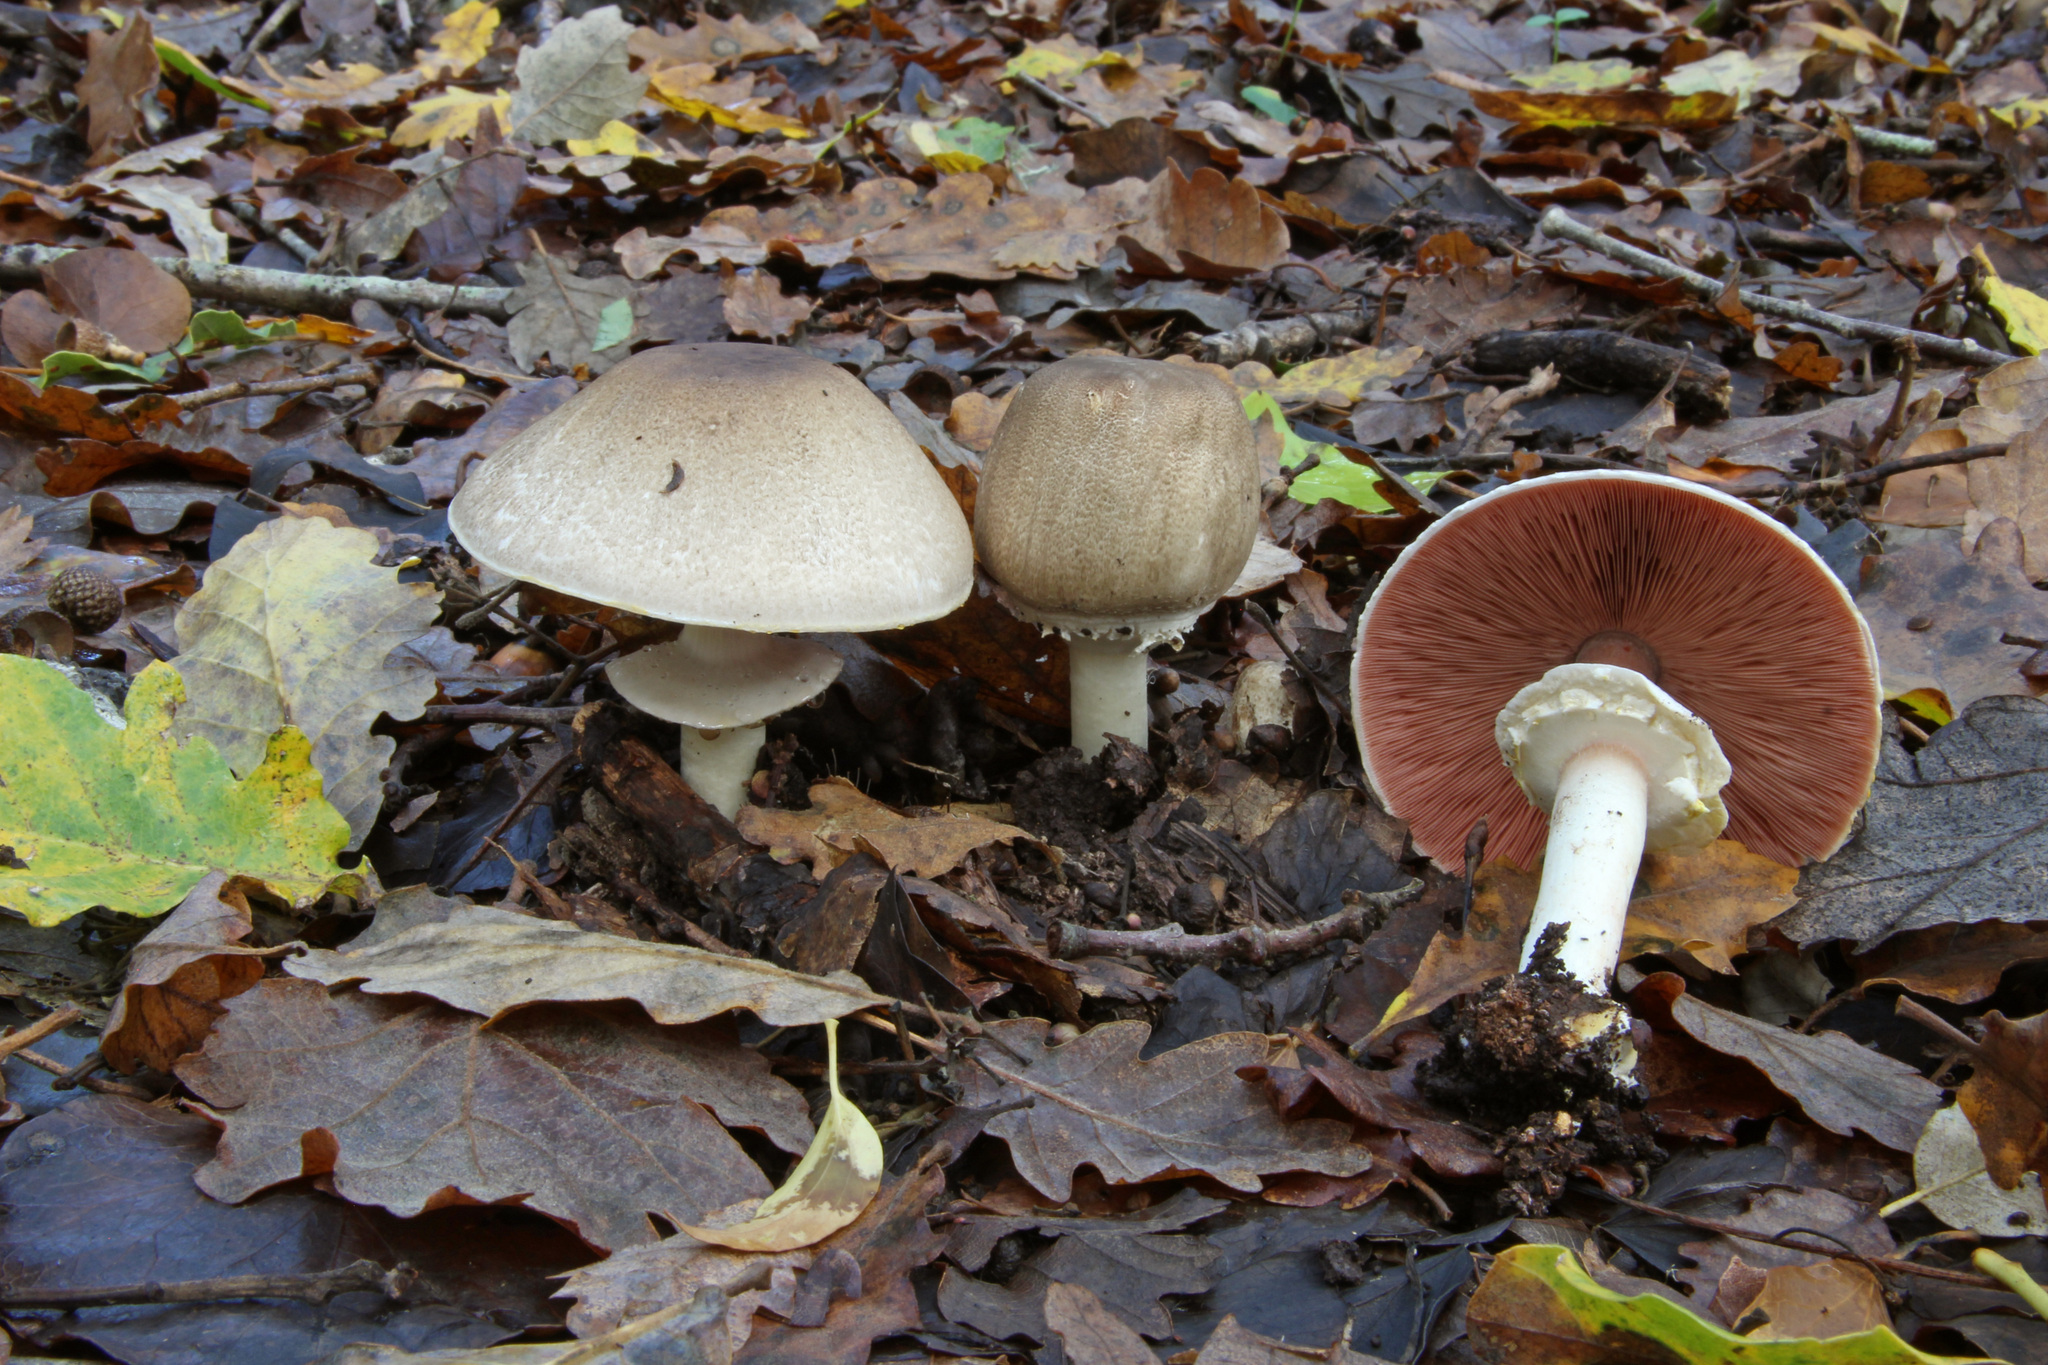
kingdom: Fungi
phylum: Basidiomycota
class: Agaricomycetes
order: Agaricales
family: Agaricaceae
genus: Agaricus
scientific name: Agaricus moelleri
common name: Inky mushroom
